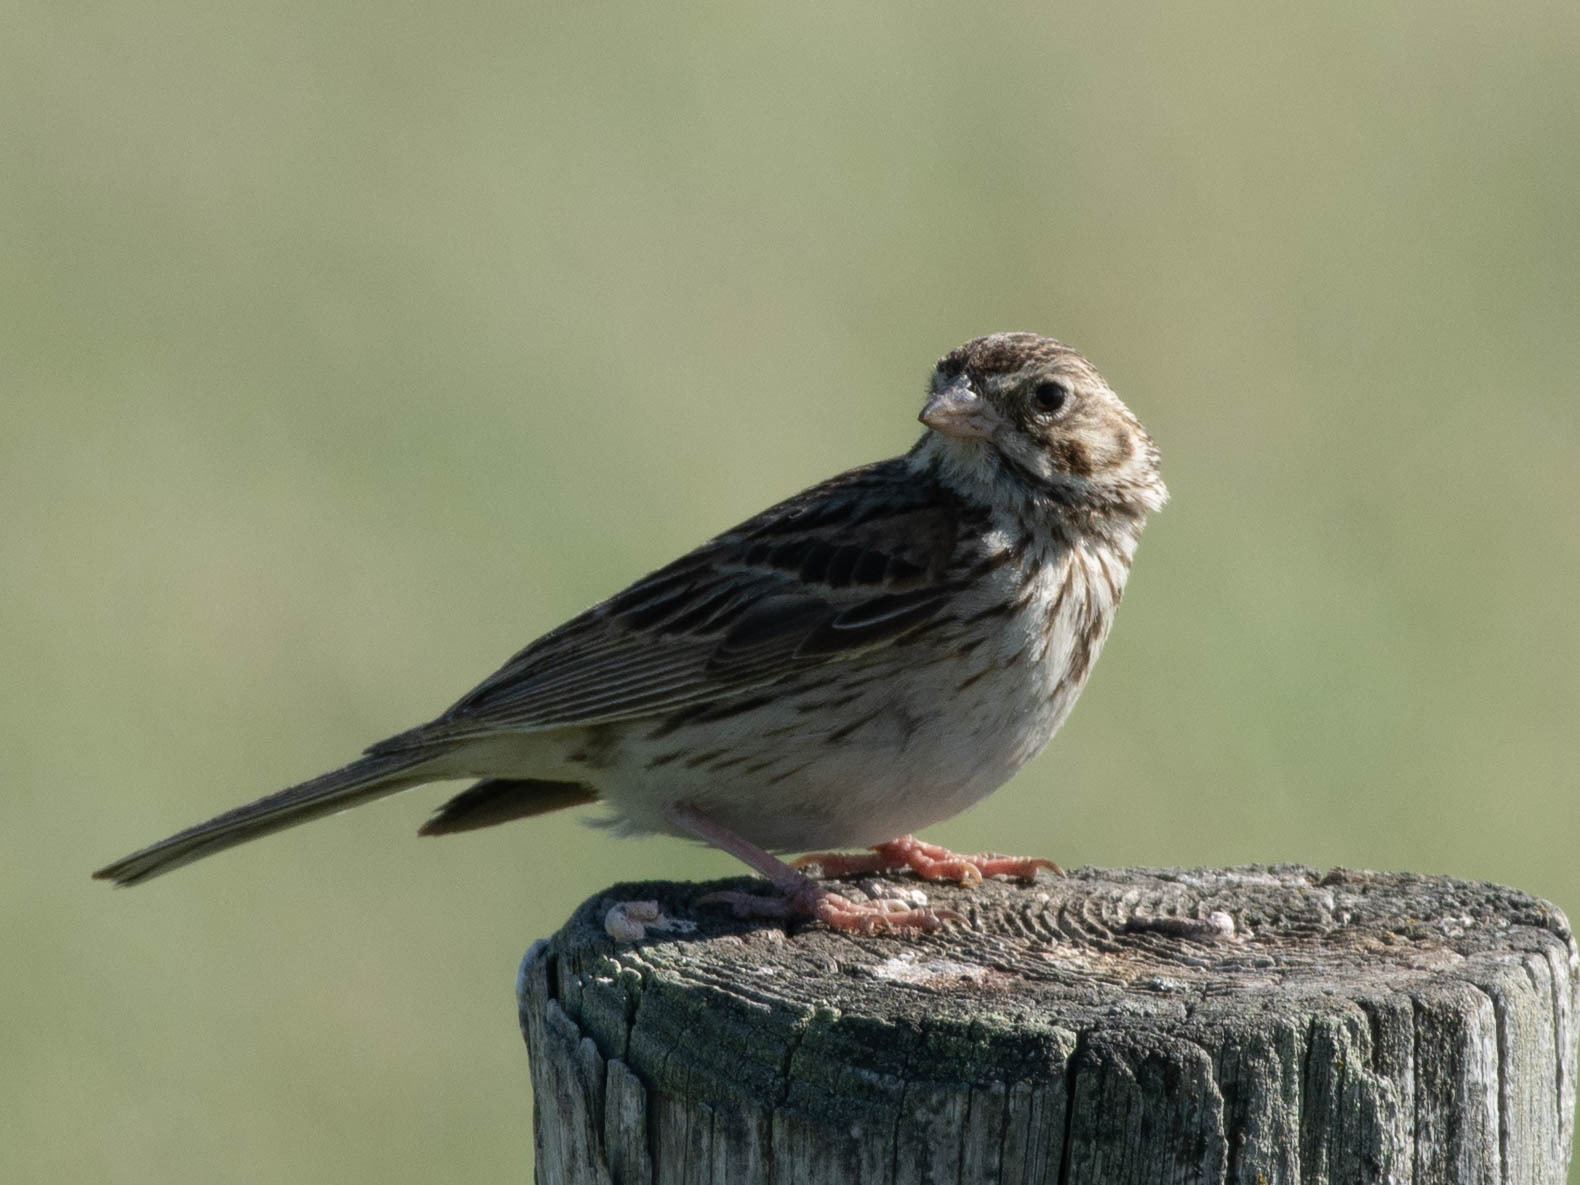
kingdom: Animalia
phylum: Chordata
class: Aves
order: Passeriformes
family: Passerellidae
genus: Pooecetes
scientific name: Pooecetes gramineus
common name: Vesper sparrow
